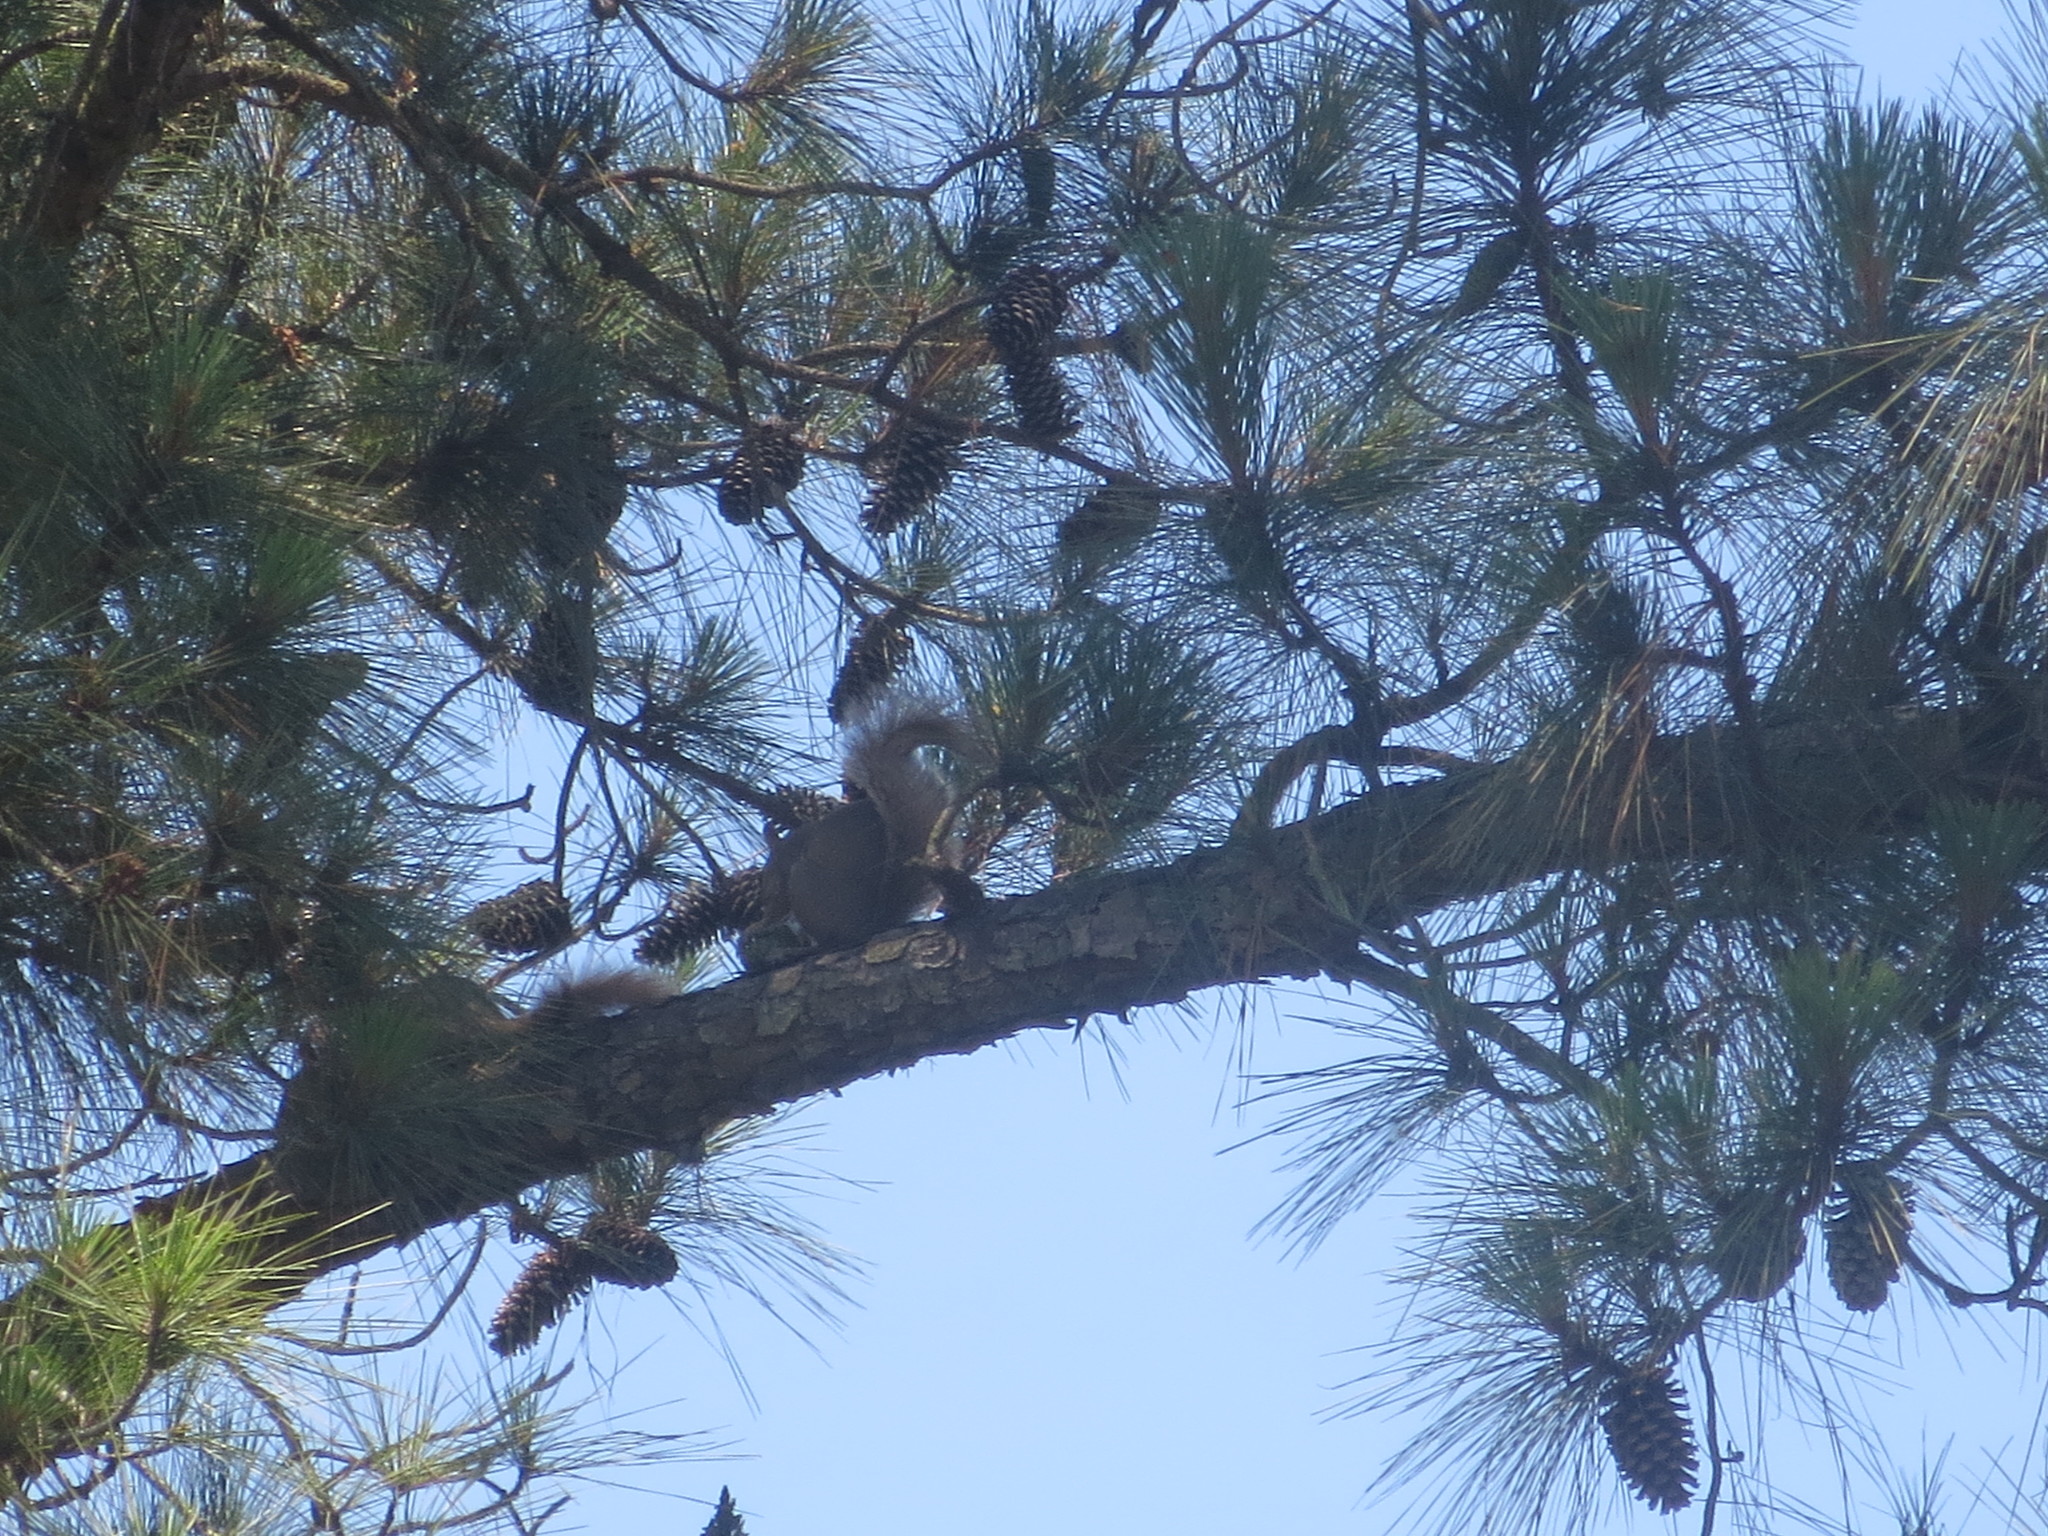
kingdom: Animalia
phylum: Chordata
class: Mammalia
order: Rodentia
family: Sciuridae
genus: Sciurus
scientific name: Sciurus carolinensis
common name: Eastern gray squirrel
